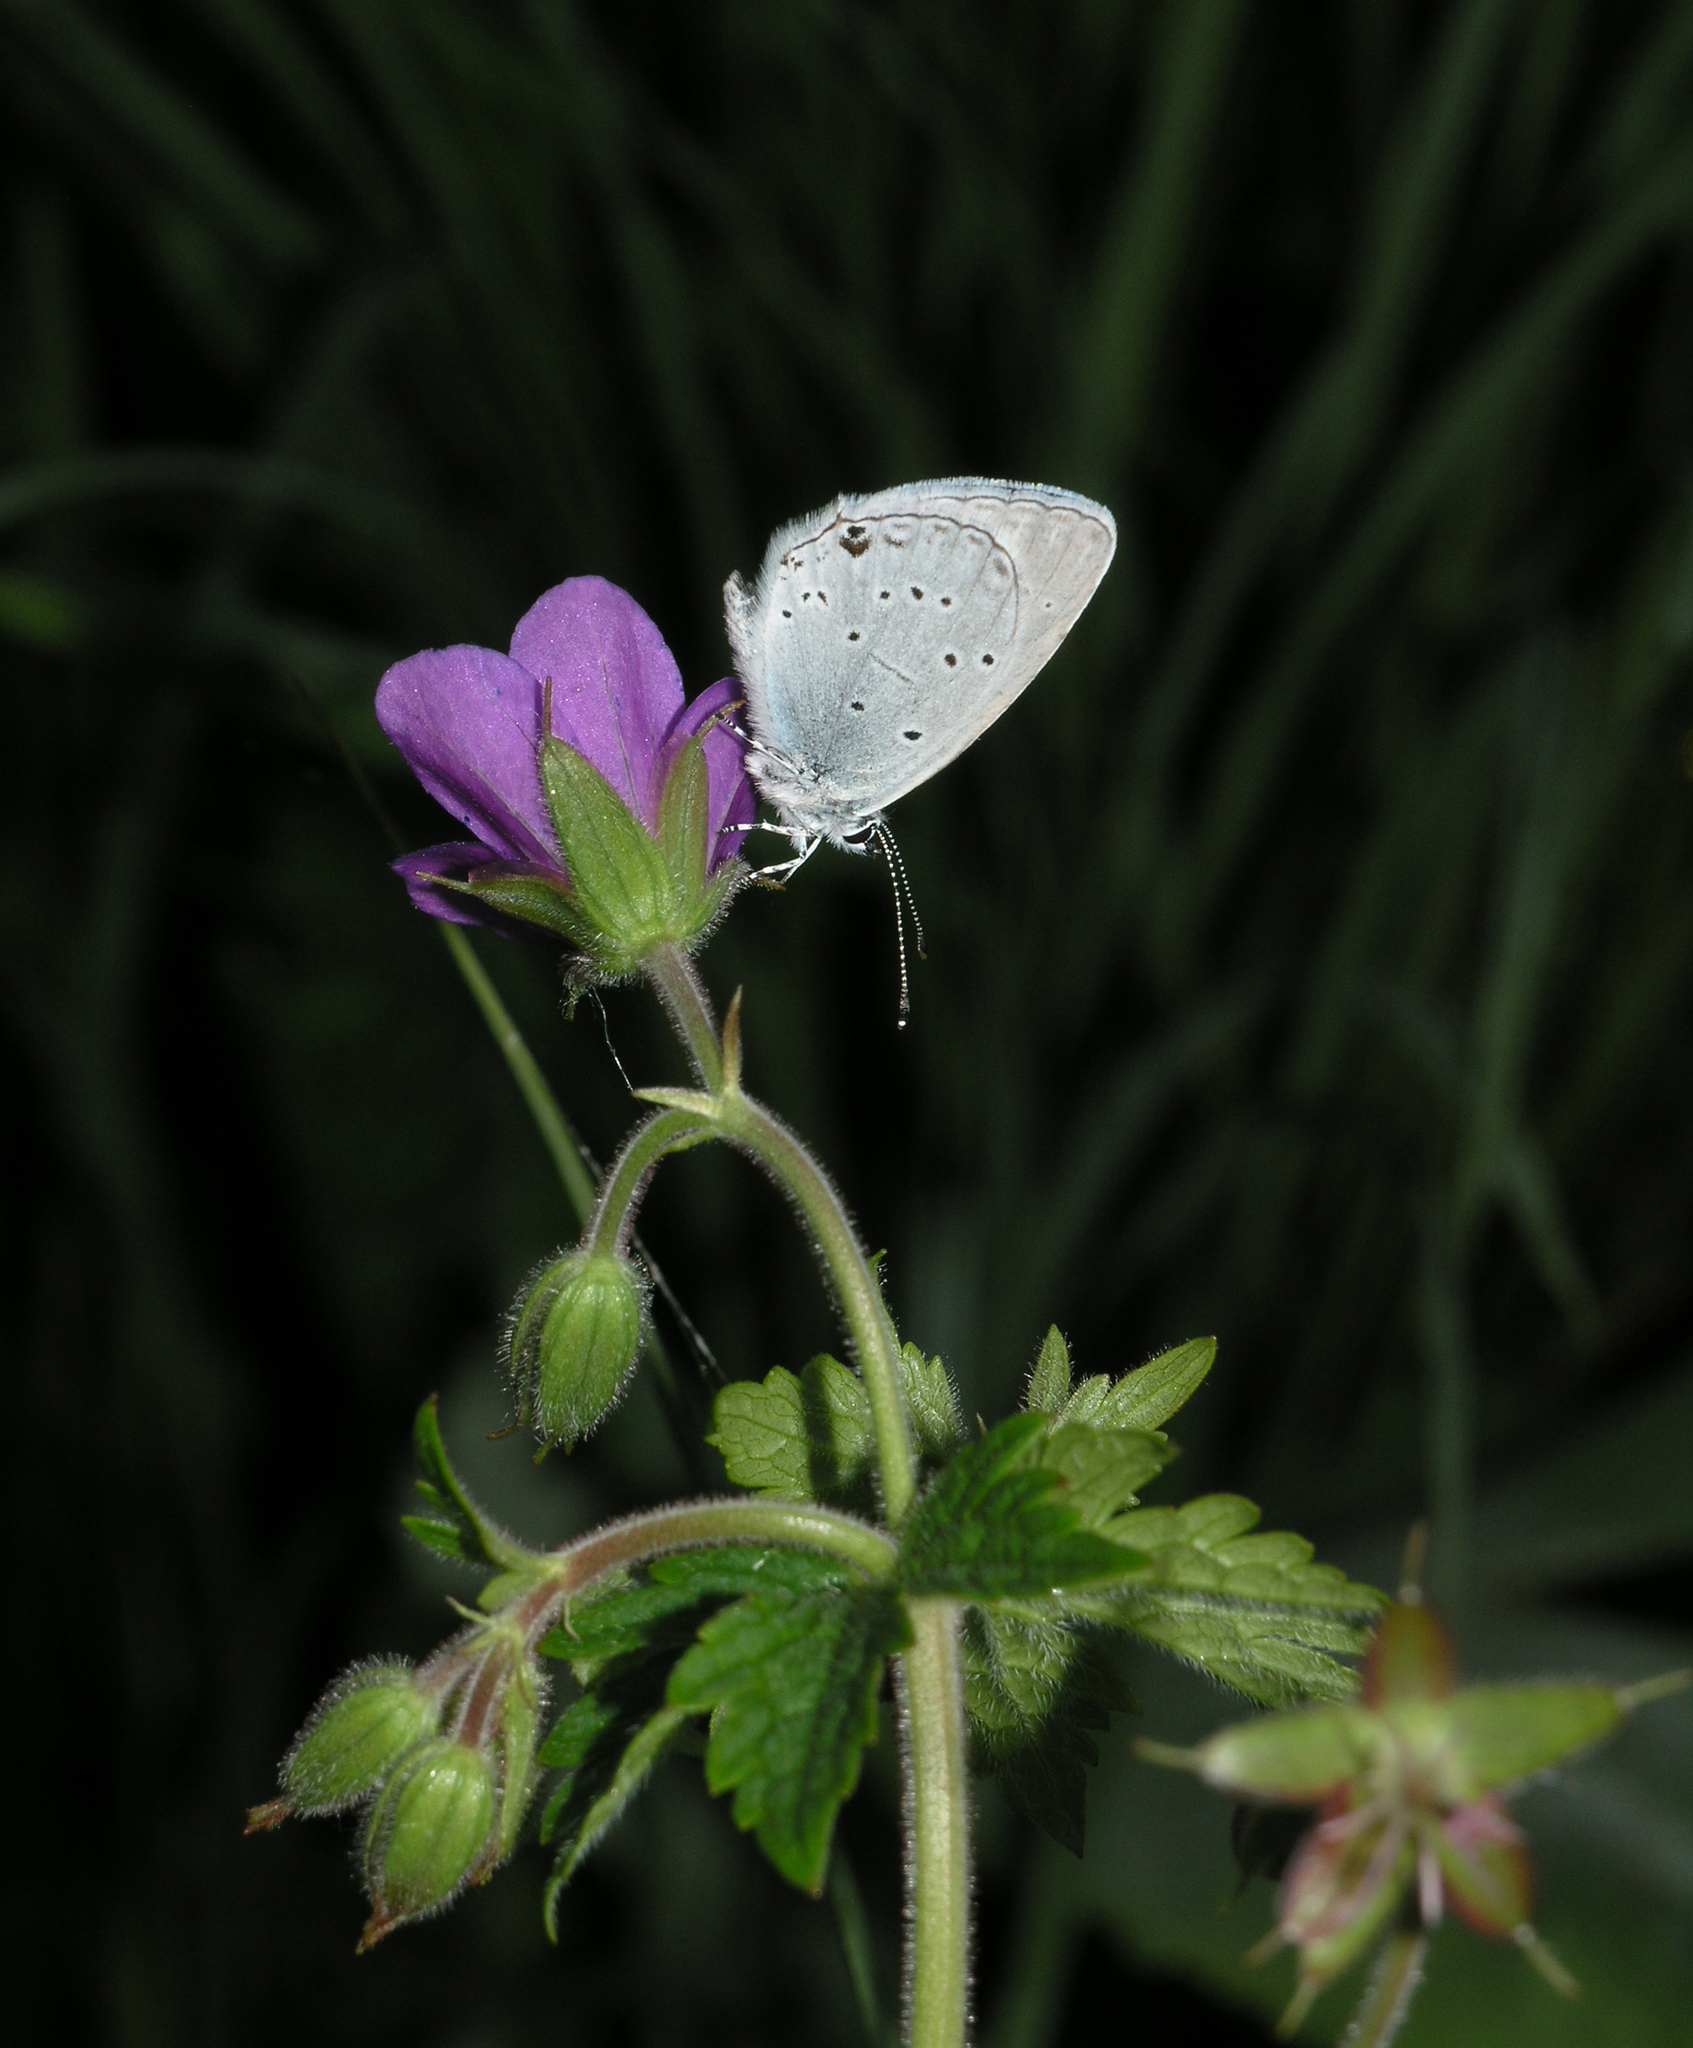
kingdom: Animalia
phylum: Arthropoda
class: Insecta
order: Lepidoptera
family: Lycaenidae
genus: Elkalyce
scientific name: Elkalyce alcetas
